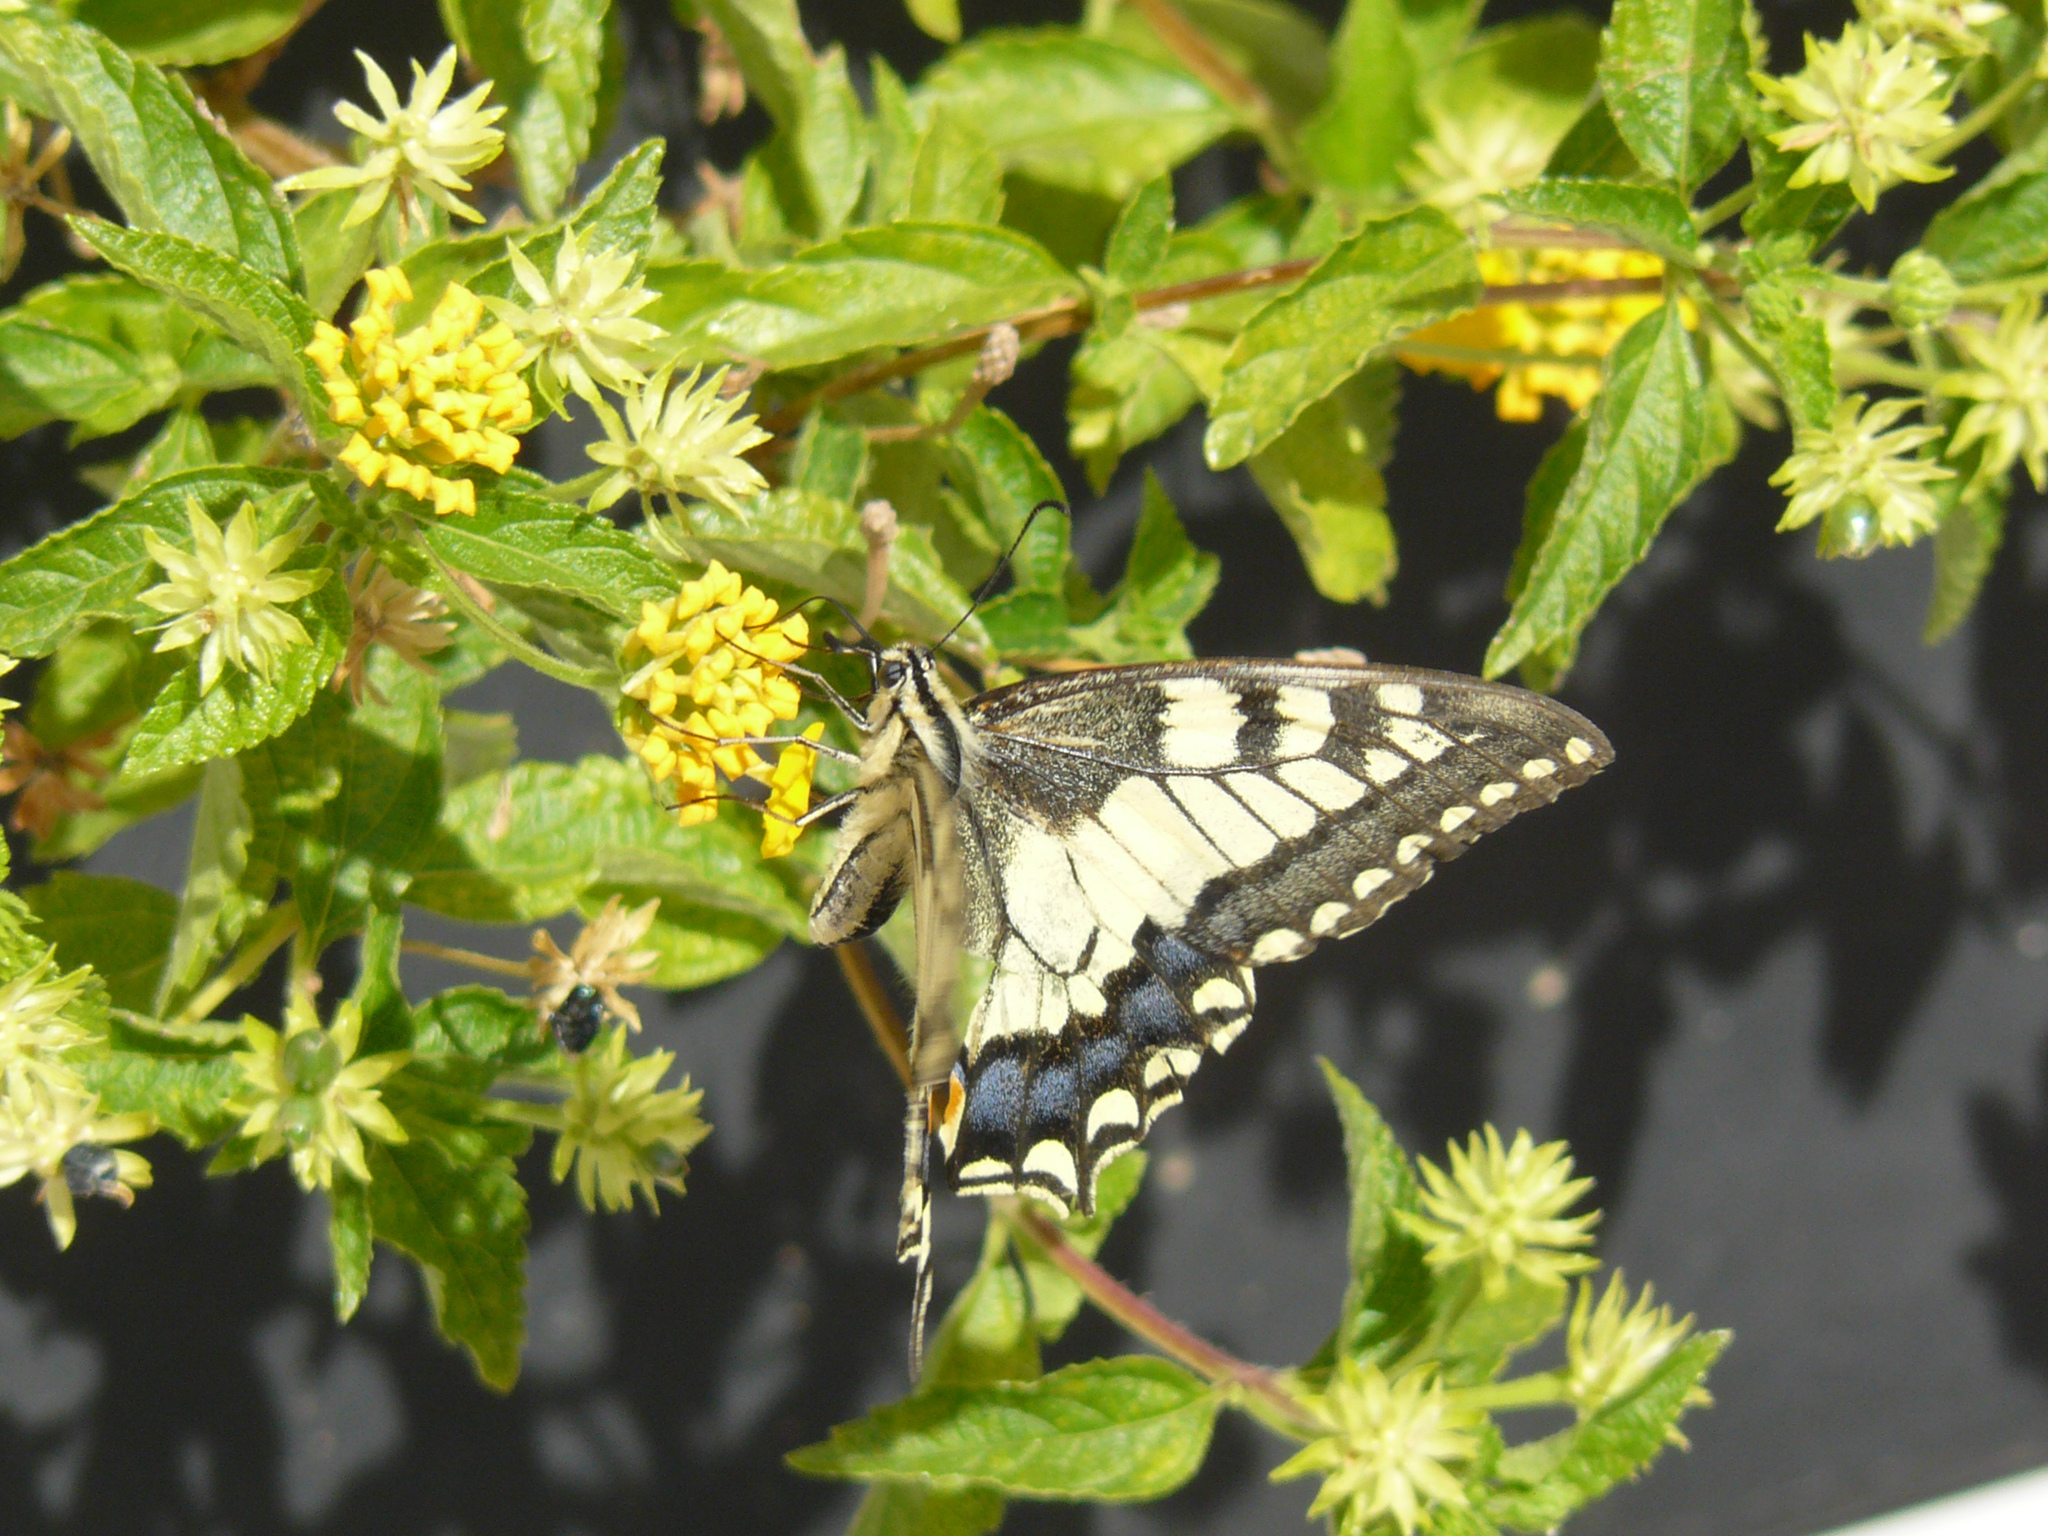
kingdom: Animalia
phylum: Arthropoda
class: Insecta
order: Lepidoptera
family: Papilionidae
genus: Papilio
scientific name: Papilio machaon
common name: Swallowtail
